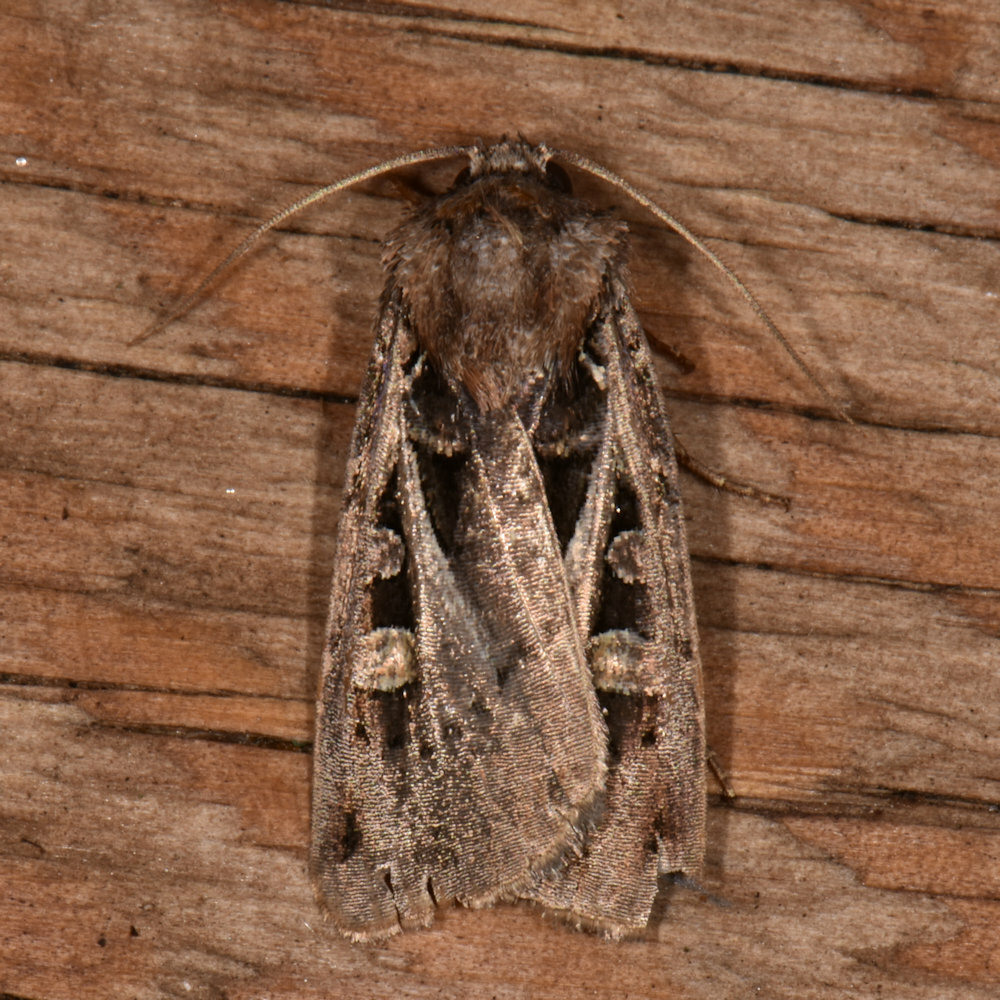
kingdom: Animalia
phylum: Arthropoda
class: Insecta
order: Lepidoptera
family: Noctuidae
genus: Feltia
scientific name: Feltia herilis
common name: Master's dart
